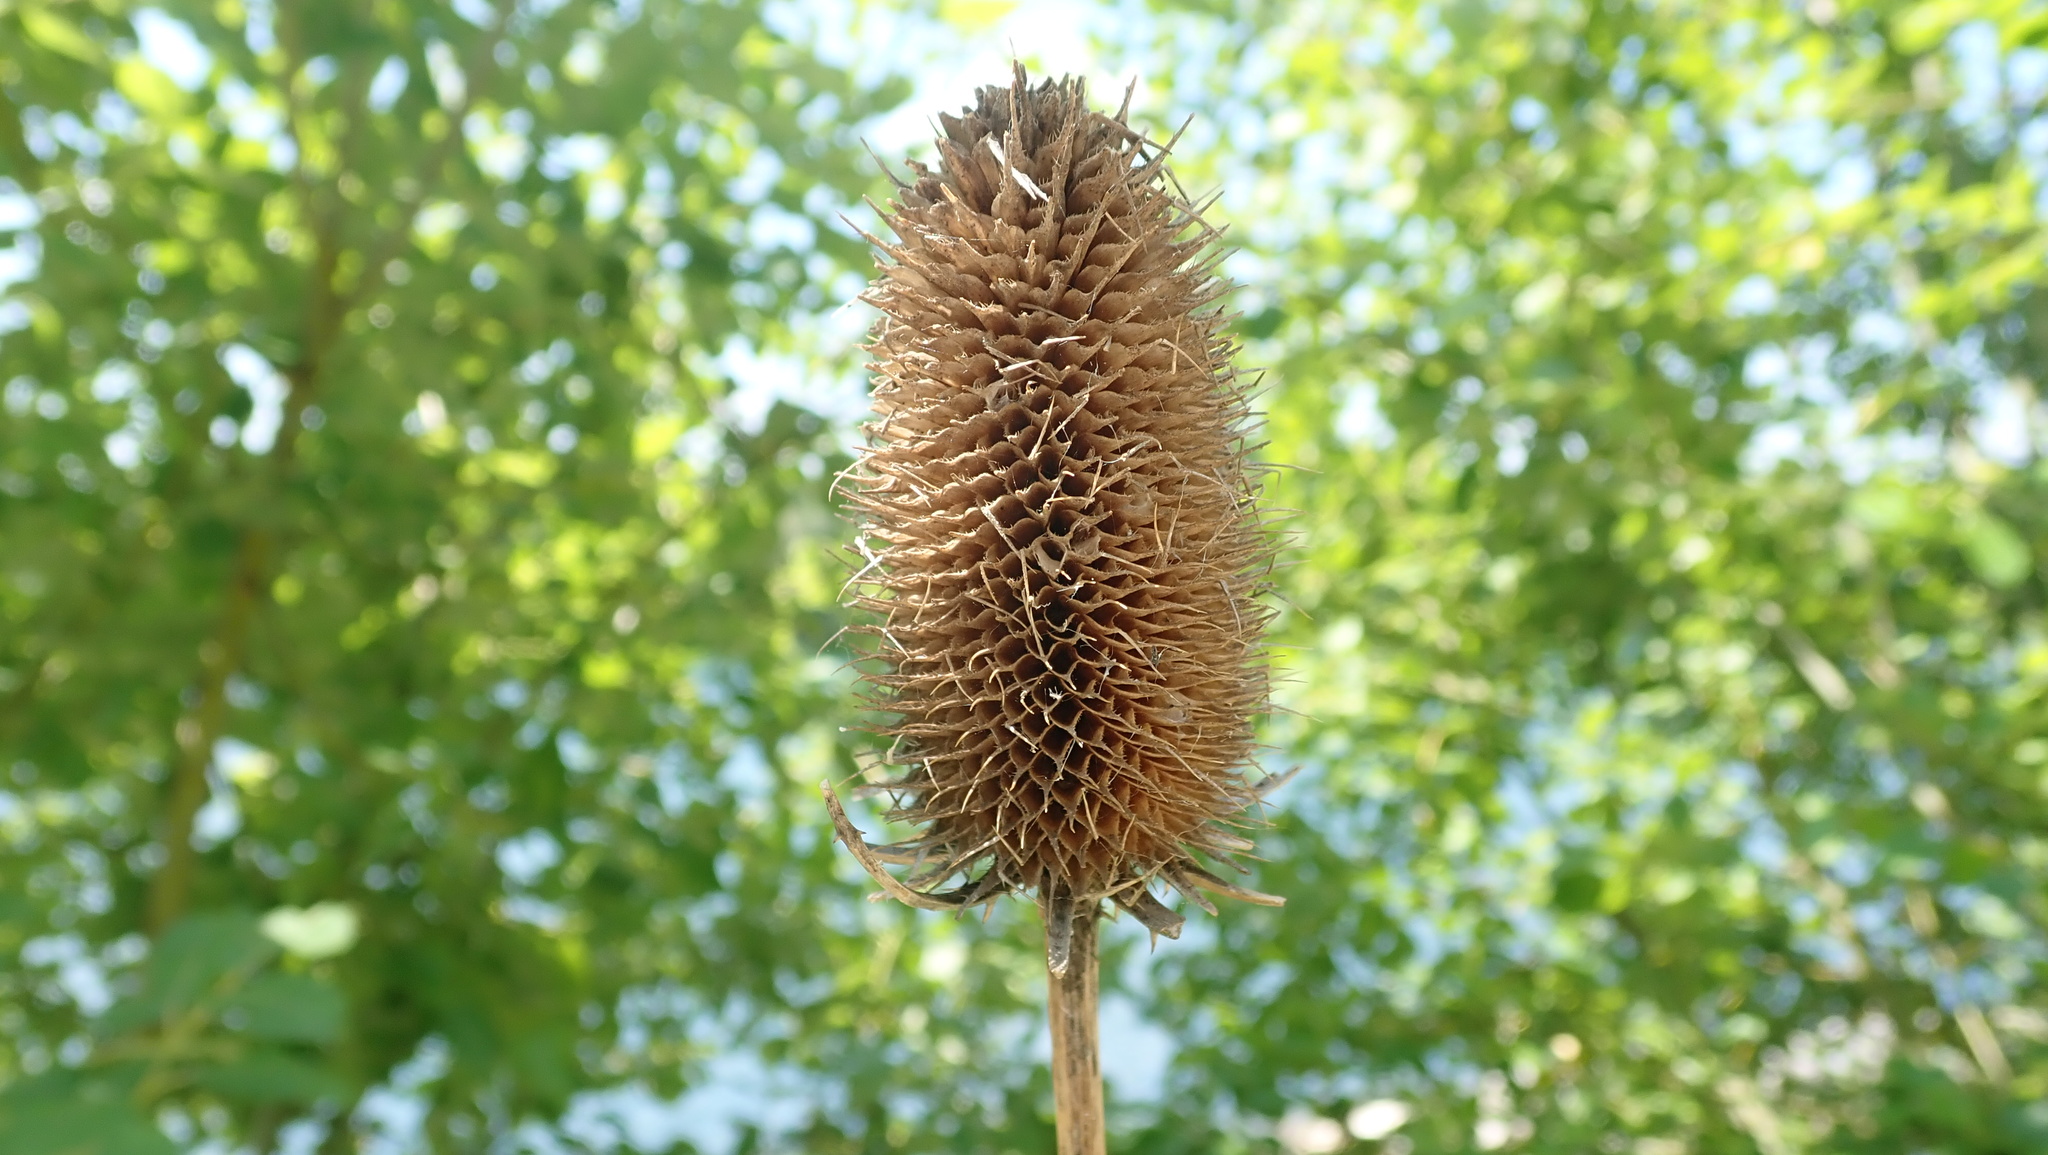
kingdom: Plantae
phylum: Tracheophyta
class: Magnoliopsida
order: Dipsacales
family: Caprifoliaceae
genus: Dipsacus
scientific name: Dipsacus fullonum
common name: Teasel
